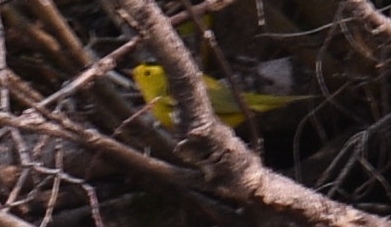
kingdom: Animalia
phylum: Chordata
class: Aves
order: Passeriformes
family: Parulidae
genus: Cardellina
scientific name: Cardellina pusilla
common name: Wilson's warbler
